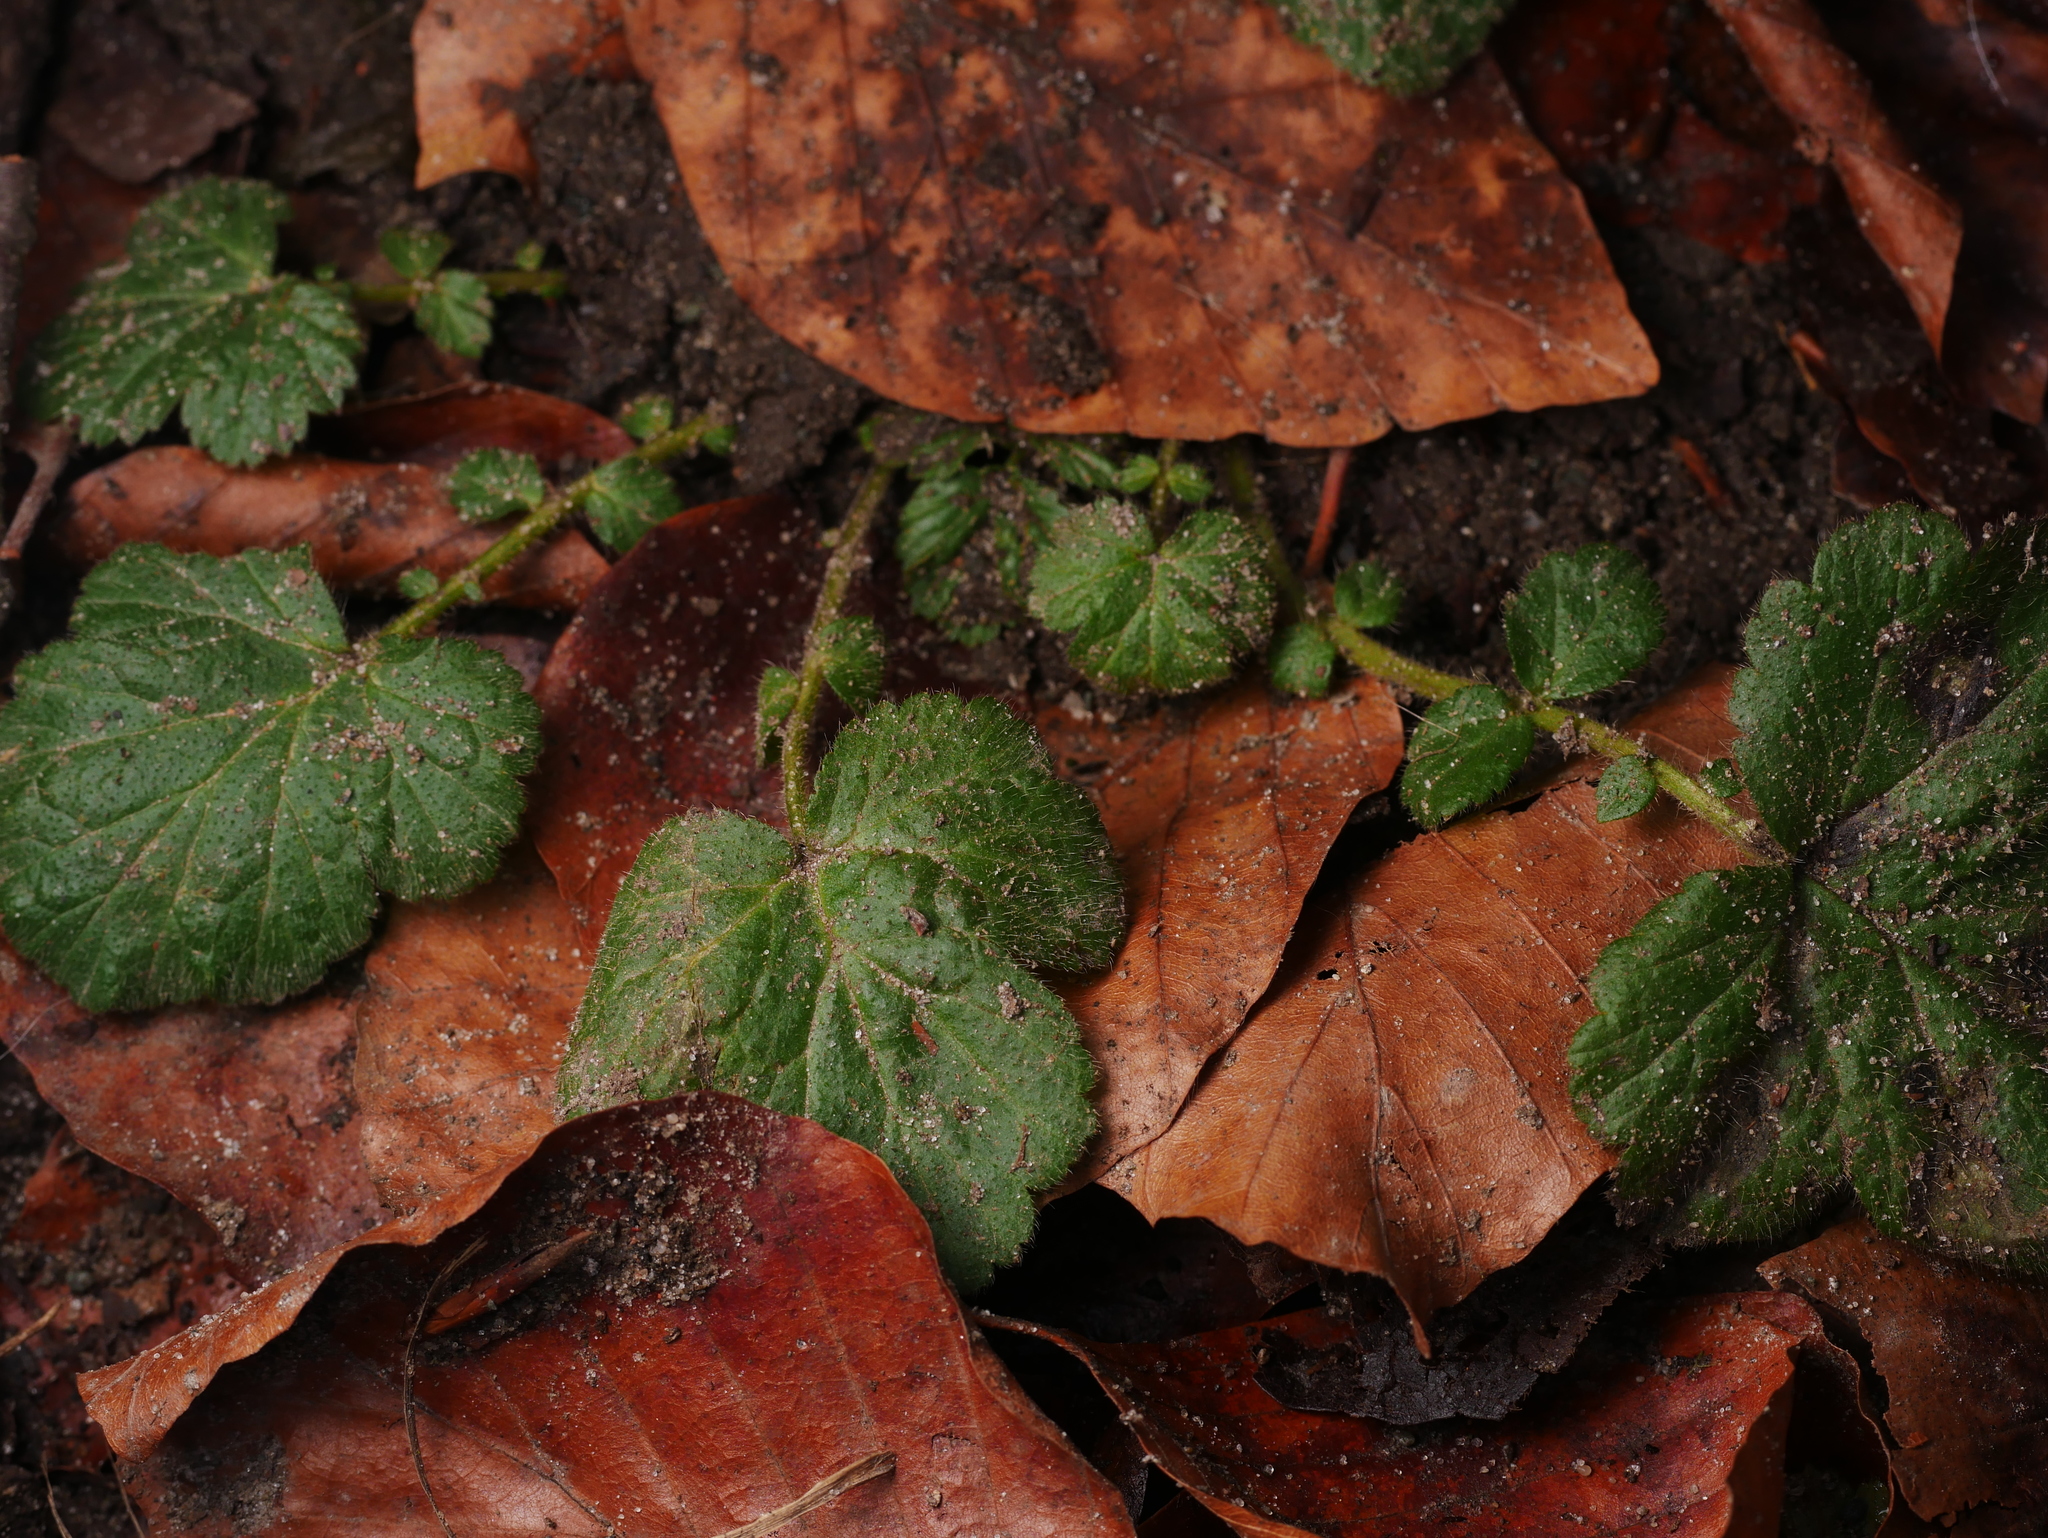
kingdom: Plantae
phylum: Tracheophyta
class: Magnoliopsida
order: Rosales
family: Rosaceae
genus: Geum
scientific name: Geum urbanum
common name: Wood avens
